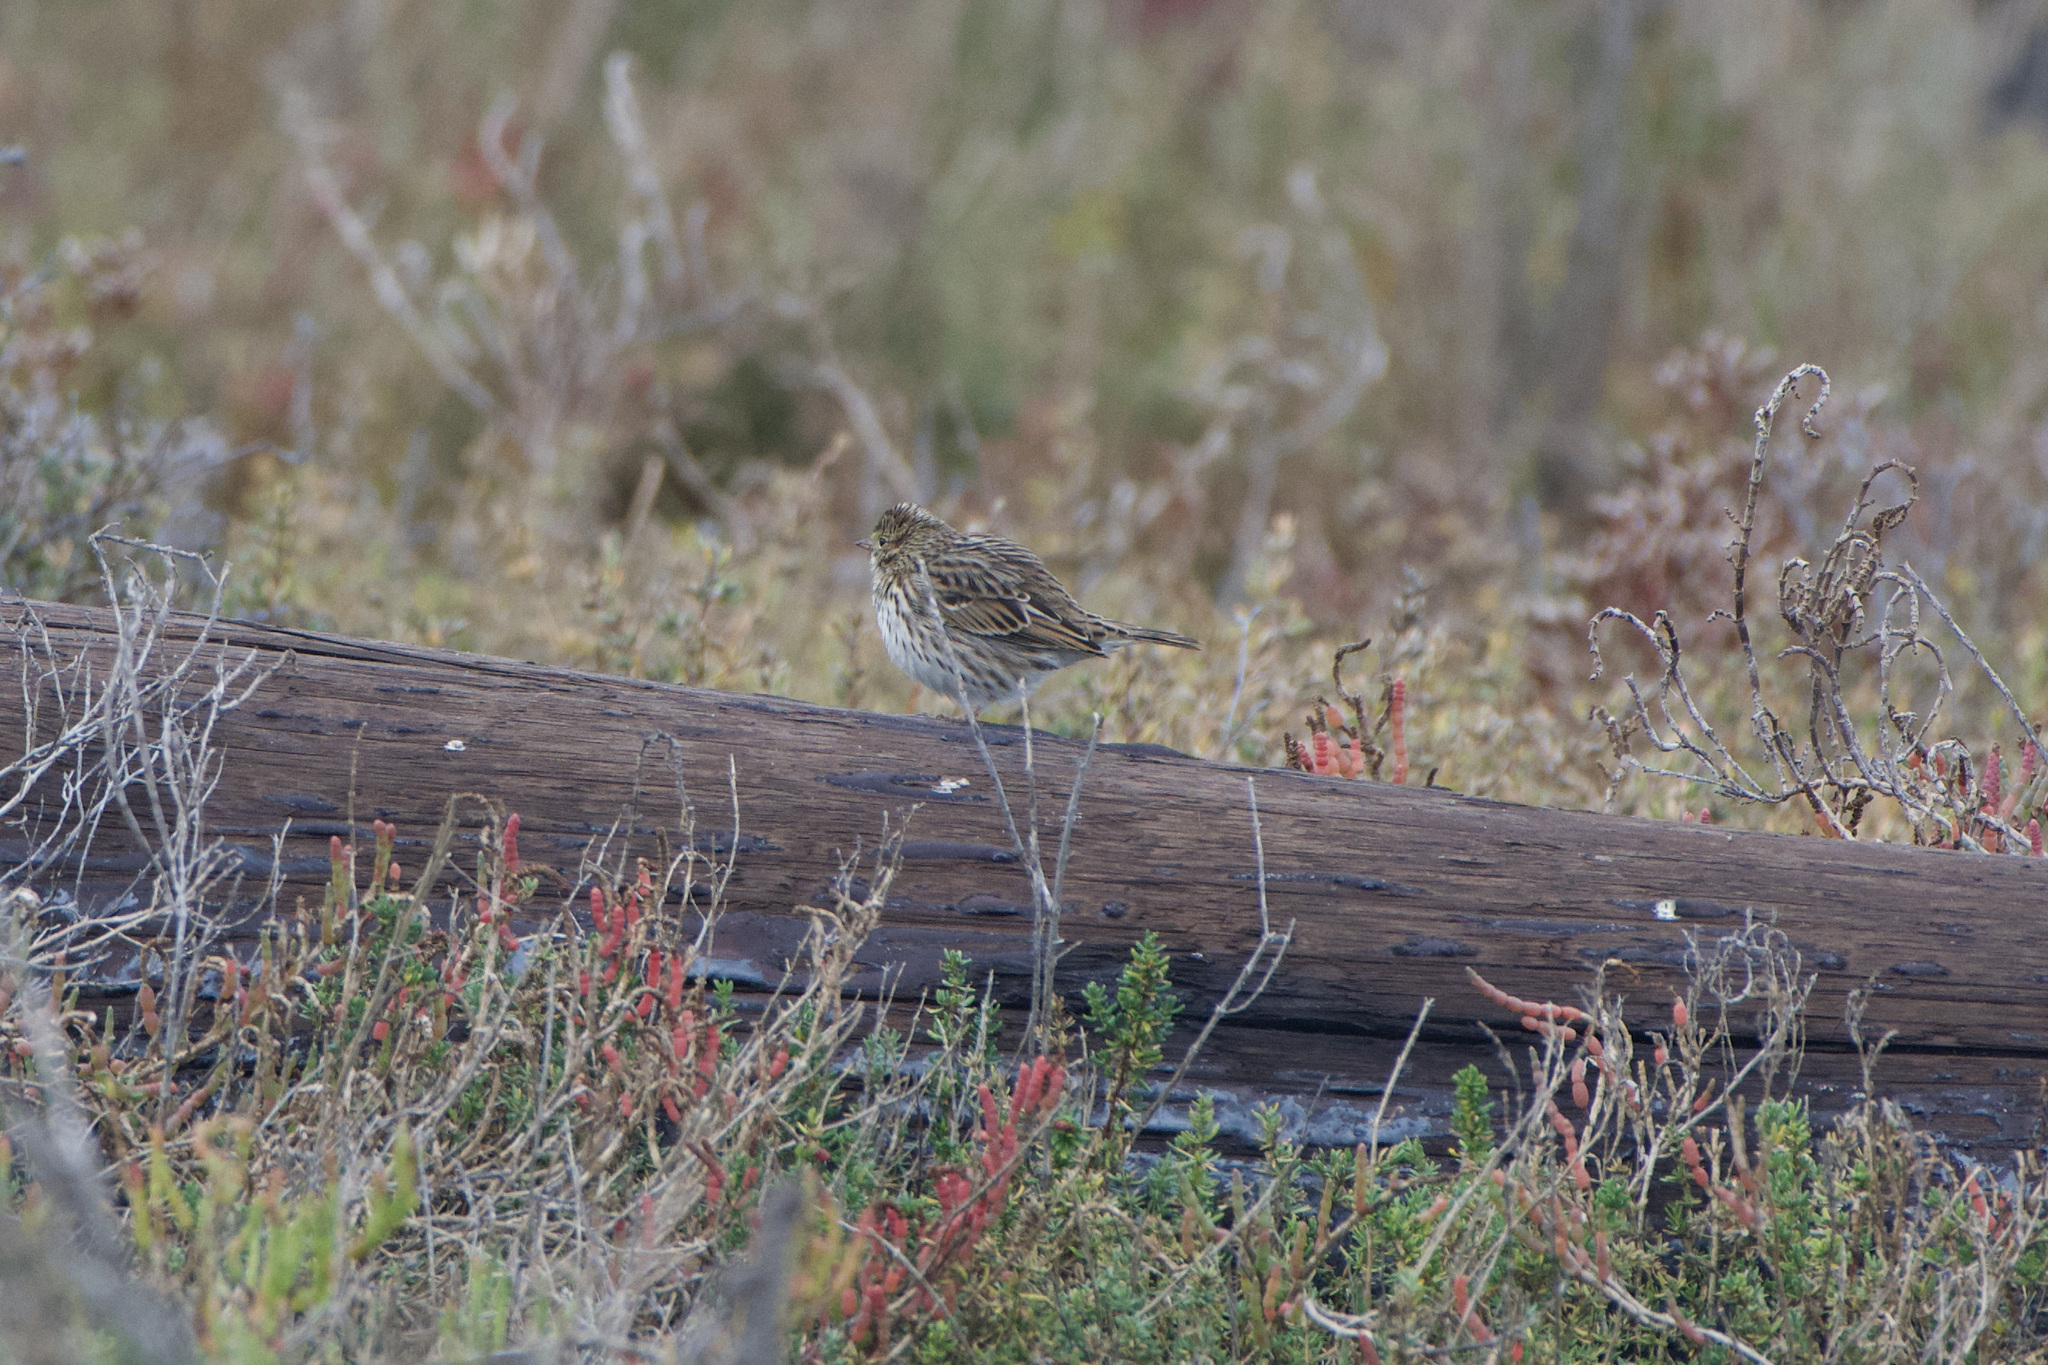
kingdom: Animalia
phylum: Chordata
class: Aves
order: Passeriformes
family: Passerellidae
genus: Passerculus
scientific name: Passerculus sandwichensis
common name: Savannah sparrow
